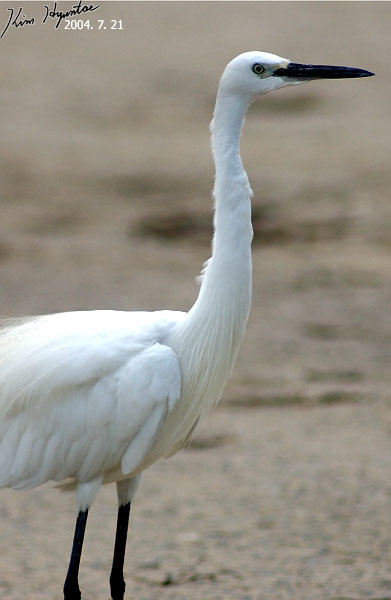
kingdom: Animalia
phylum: Chordata
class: Aves
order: Pelecaniformes
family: Ardeidae
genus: Egretta
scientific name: Egretta garzetta
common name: Little egret
